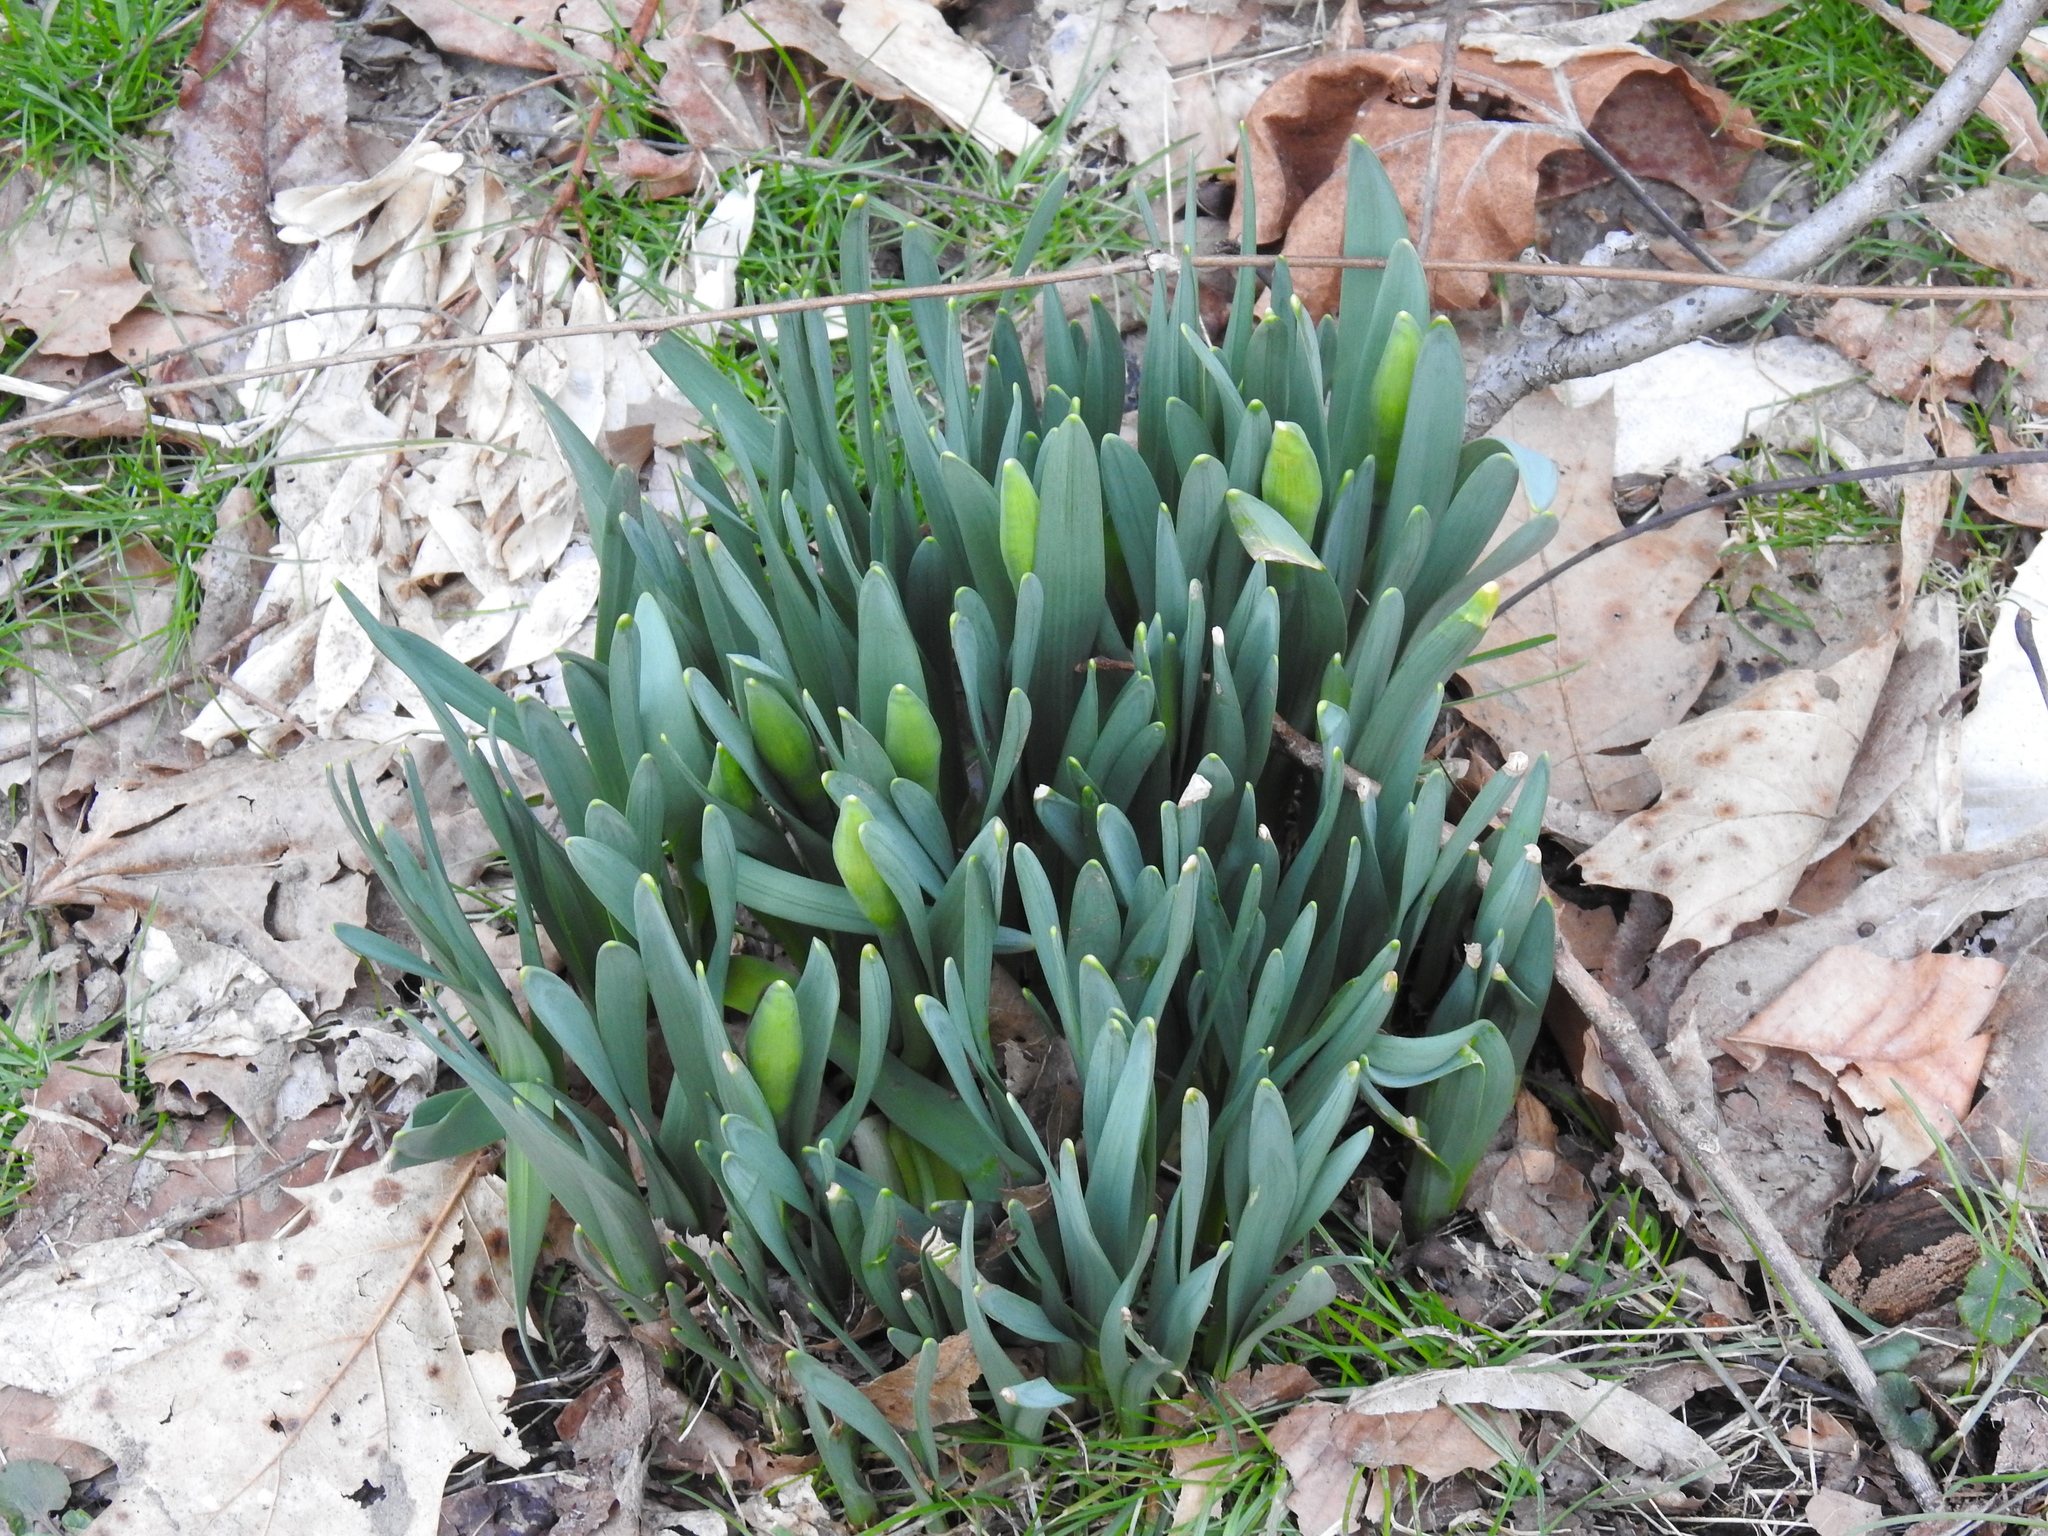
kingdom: Plantae
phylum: Tracheophyta
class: Liliopsida
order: Asparagales
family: Amaryllidaceae
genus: Narcissus
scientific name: Narcissus
